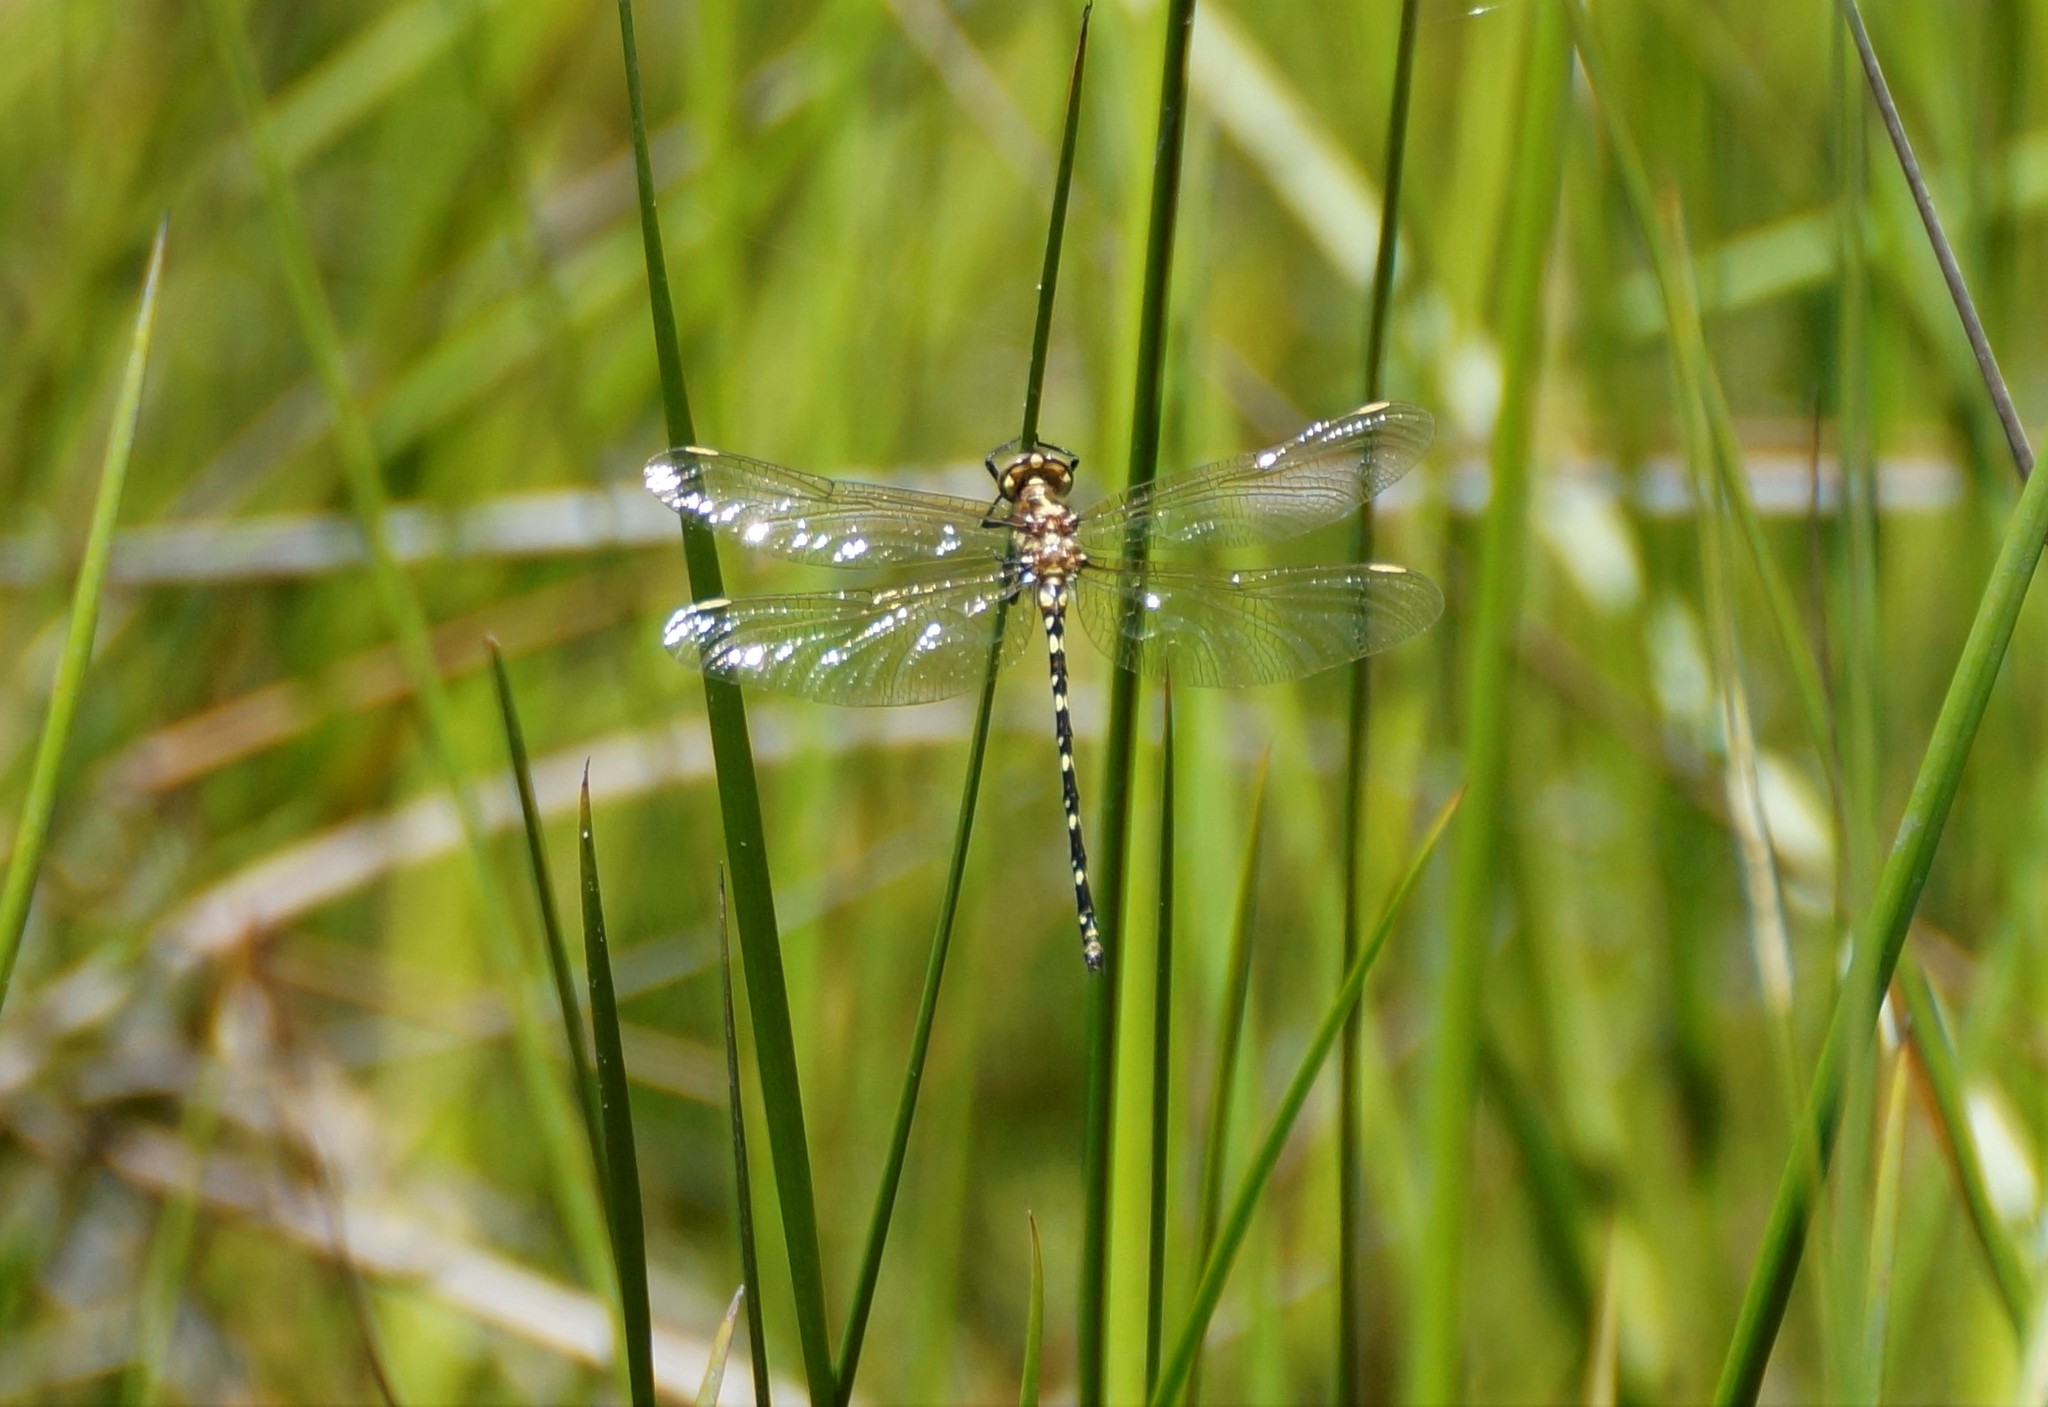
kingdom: Animalia
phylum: Arthropoda
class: Insecta
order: Odonata
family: Synthemistidae
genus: Synthemis
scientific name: Synthemis eustalacta
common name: Swamp tigertail
